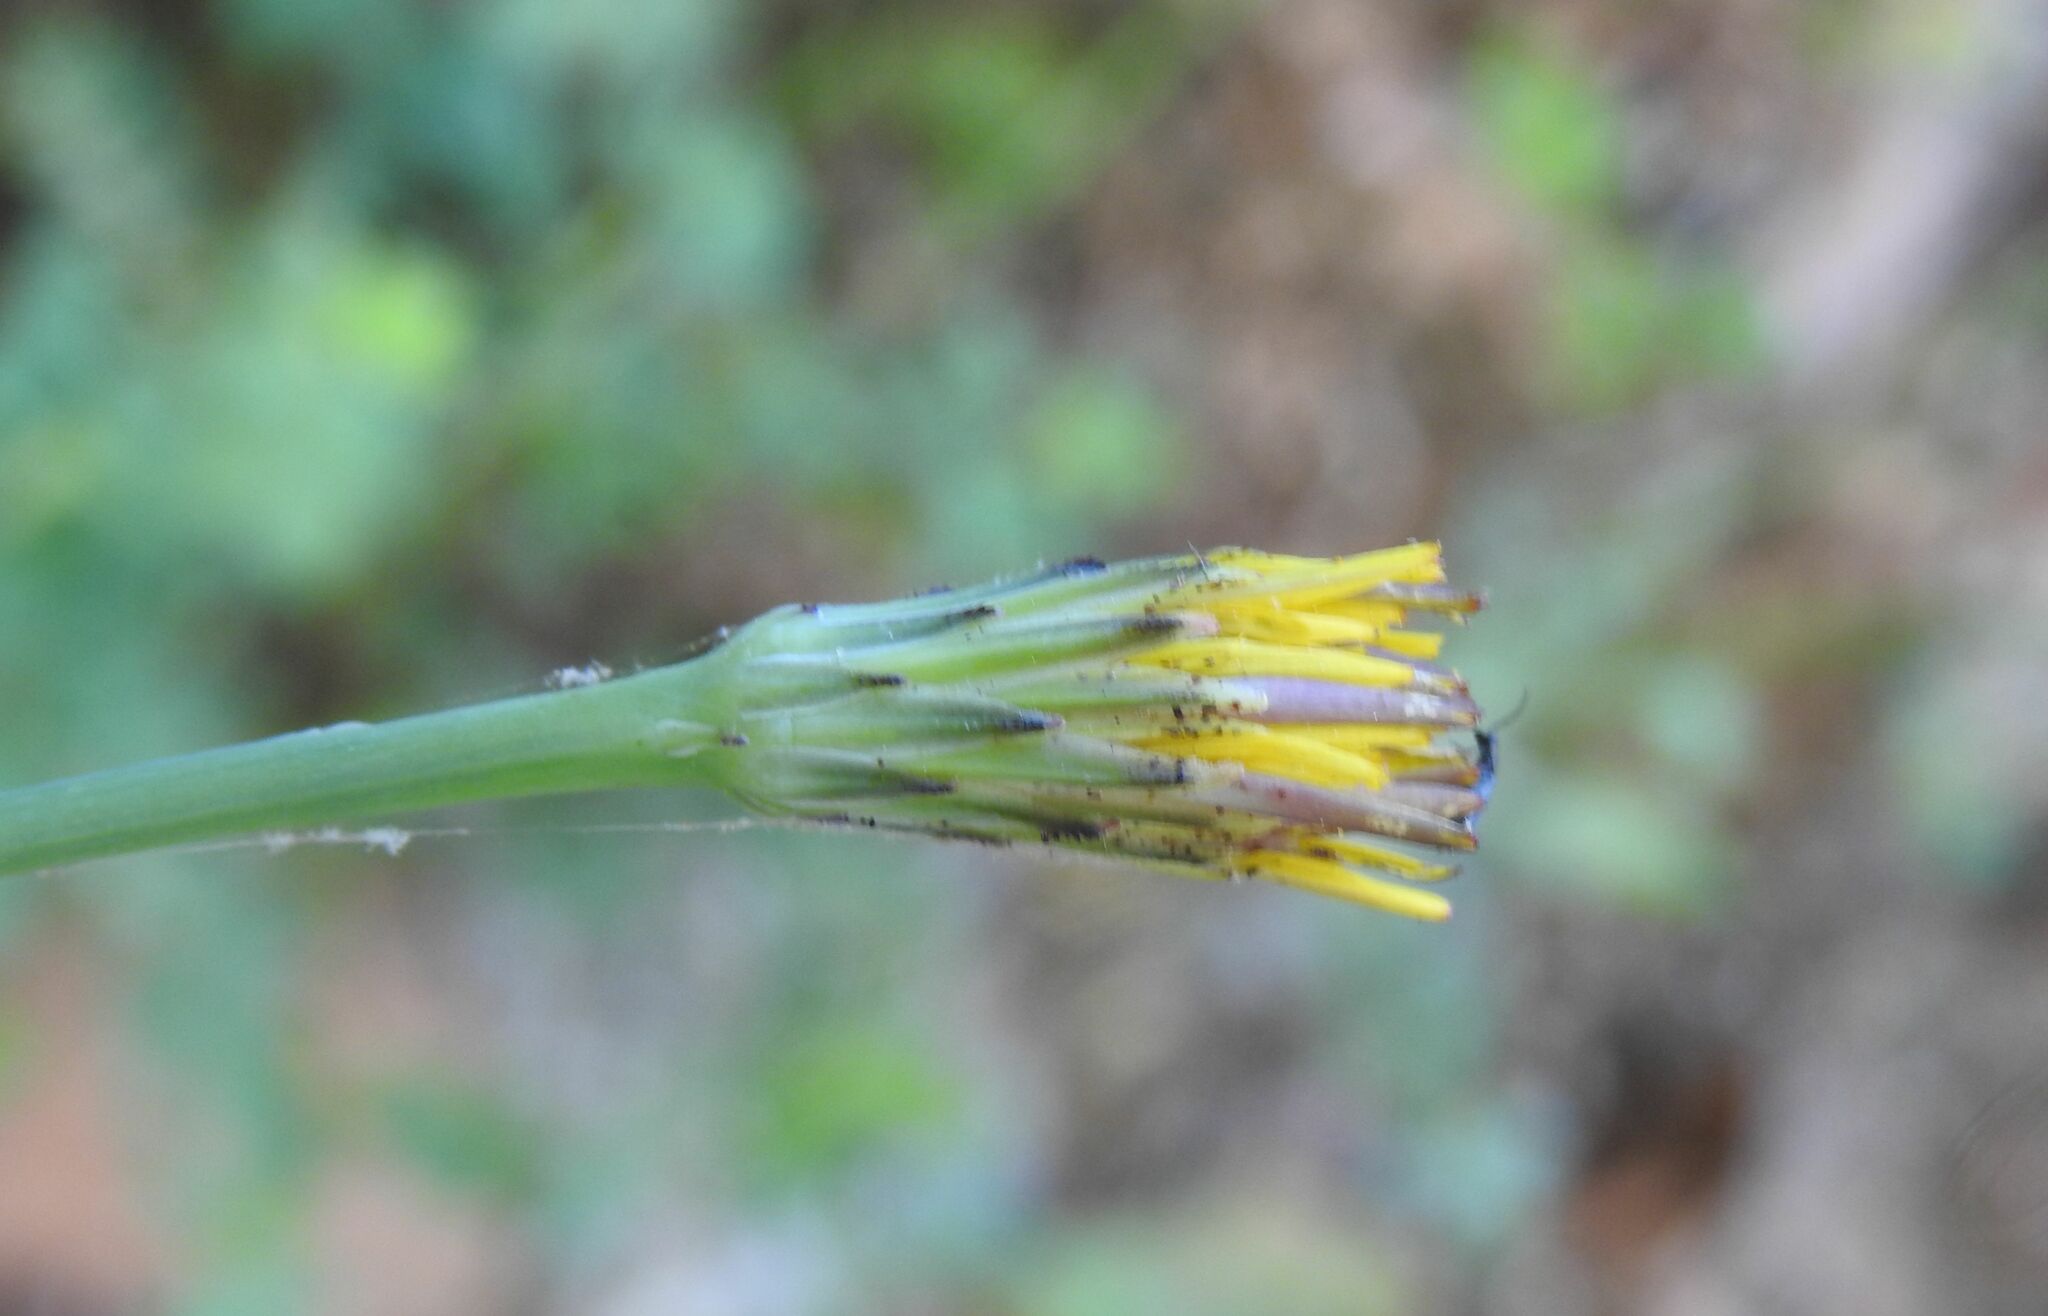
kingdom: Plantae
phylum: Tracheophyta
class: Magnoliopsida
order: Asterales
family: Asteraceae
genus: Hypochaeris
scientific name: Hypochaeris radicata
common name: Flatweed
